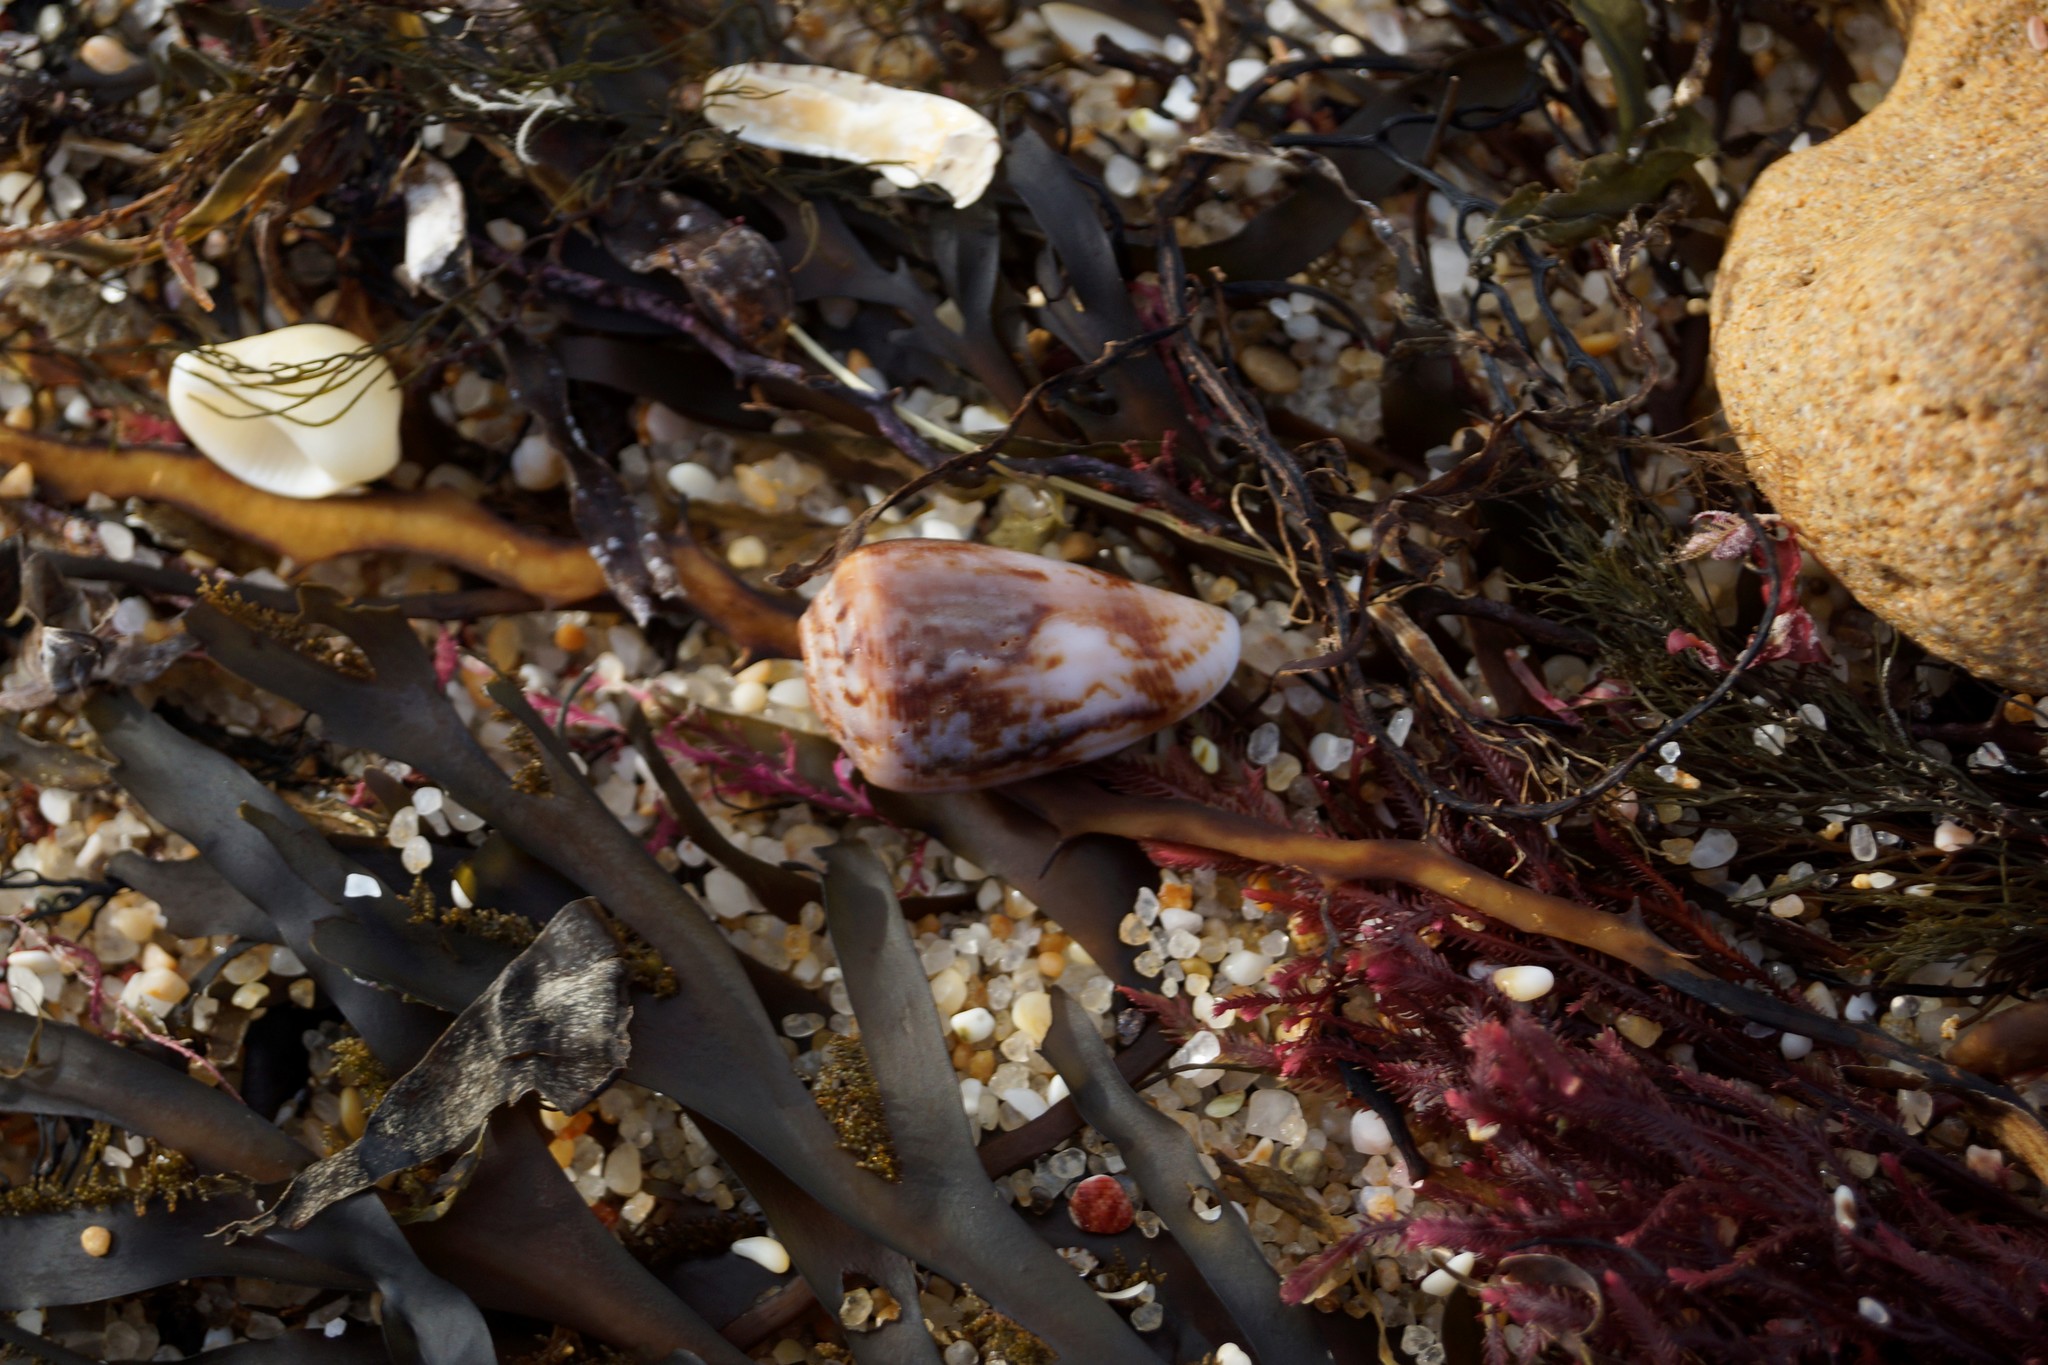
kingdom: Animalia
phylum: Mollusca
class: Gastropoda
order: Neogastropoda
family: Conidae
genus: Conus
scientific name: Conus anemone
